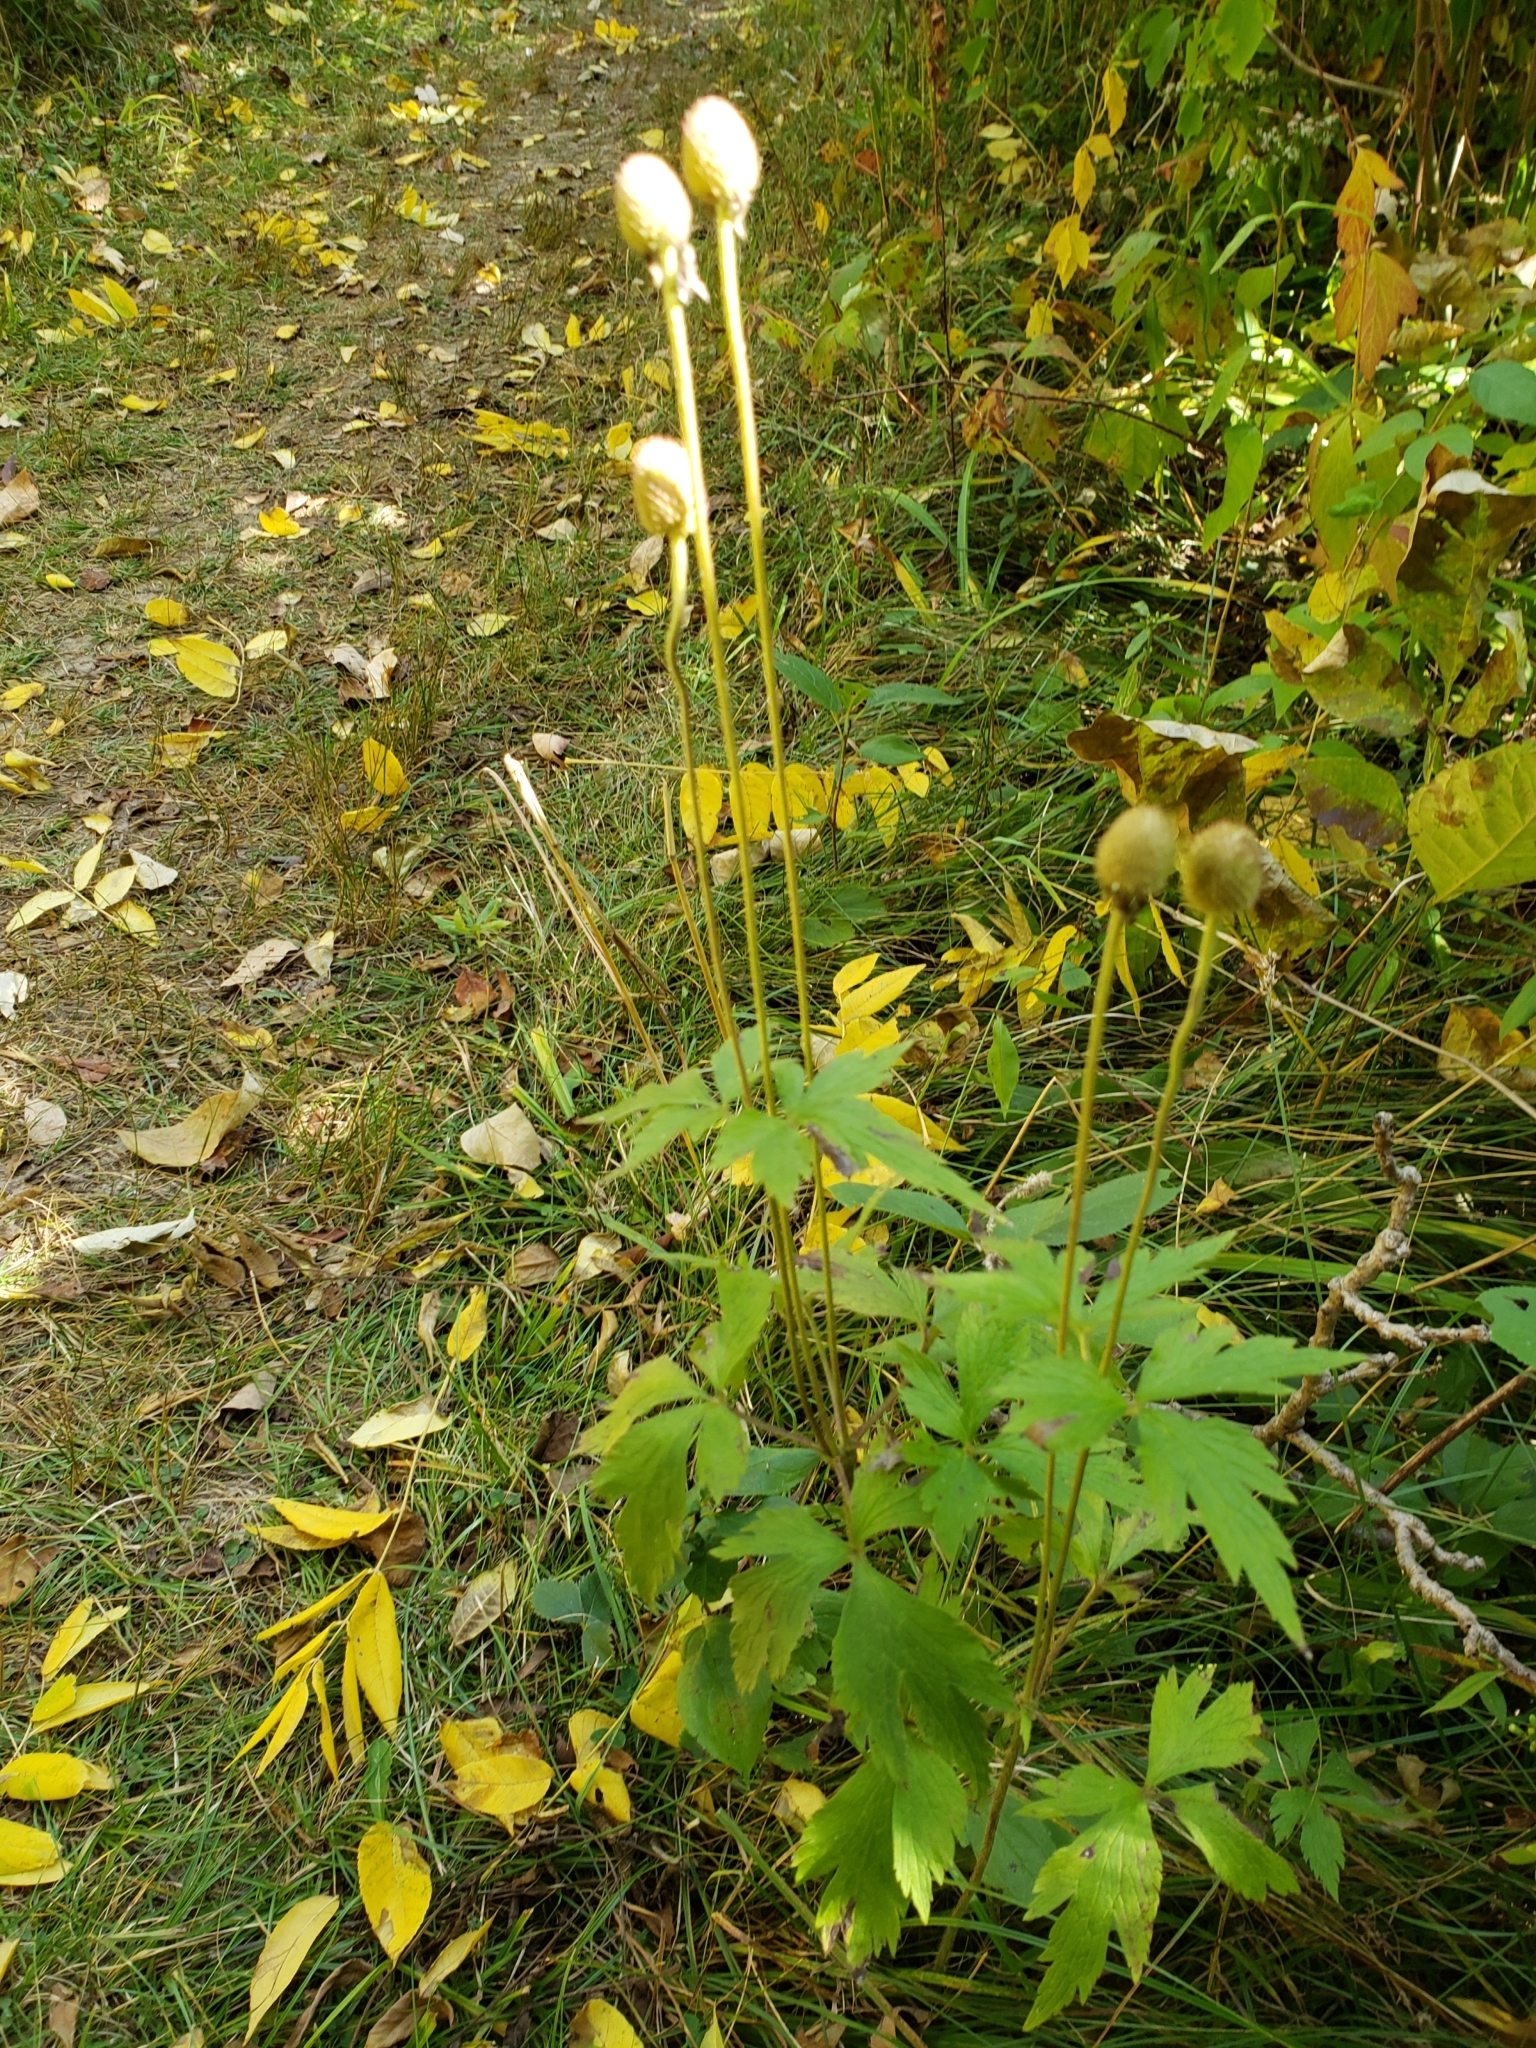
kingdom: Plantae
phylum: Tracheophyta
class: Magnoliopsida
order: Ranunculales
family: Ranunculaceae
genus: Anemone
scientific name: Anemone virginiana
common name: Tall anemone
